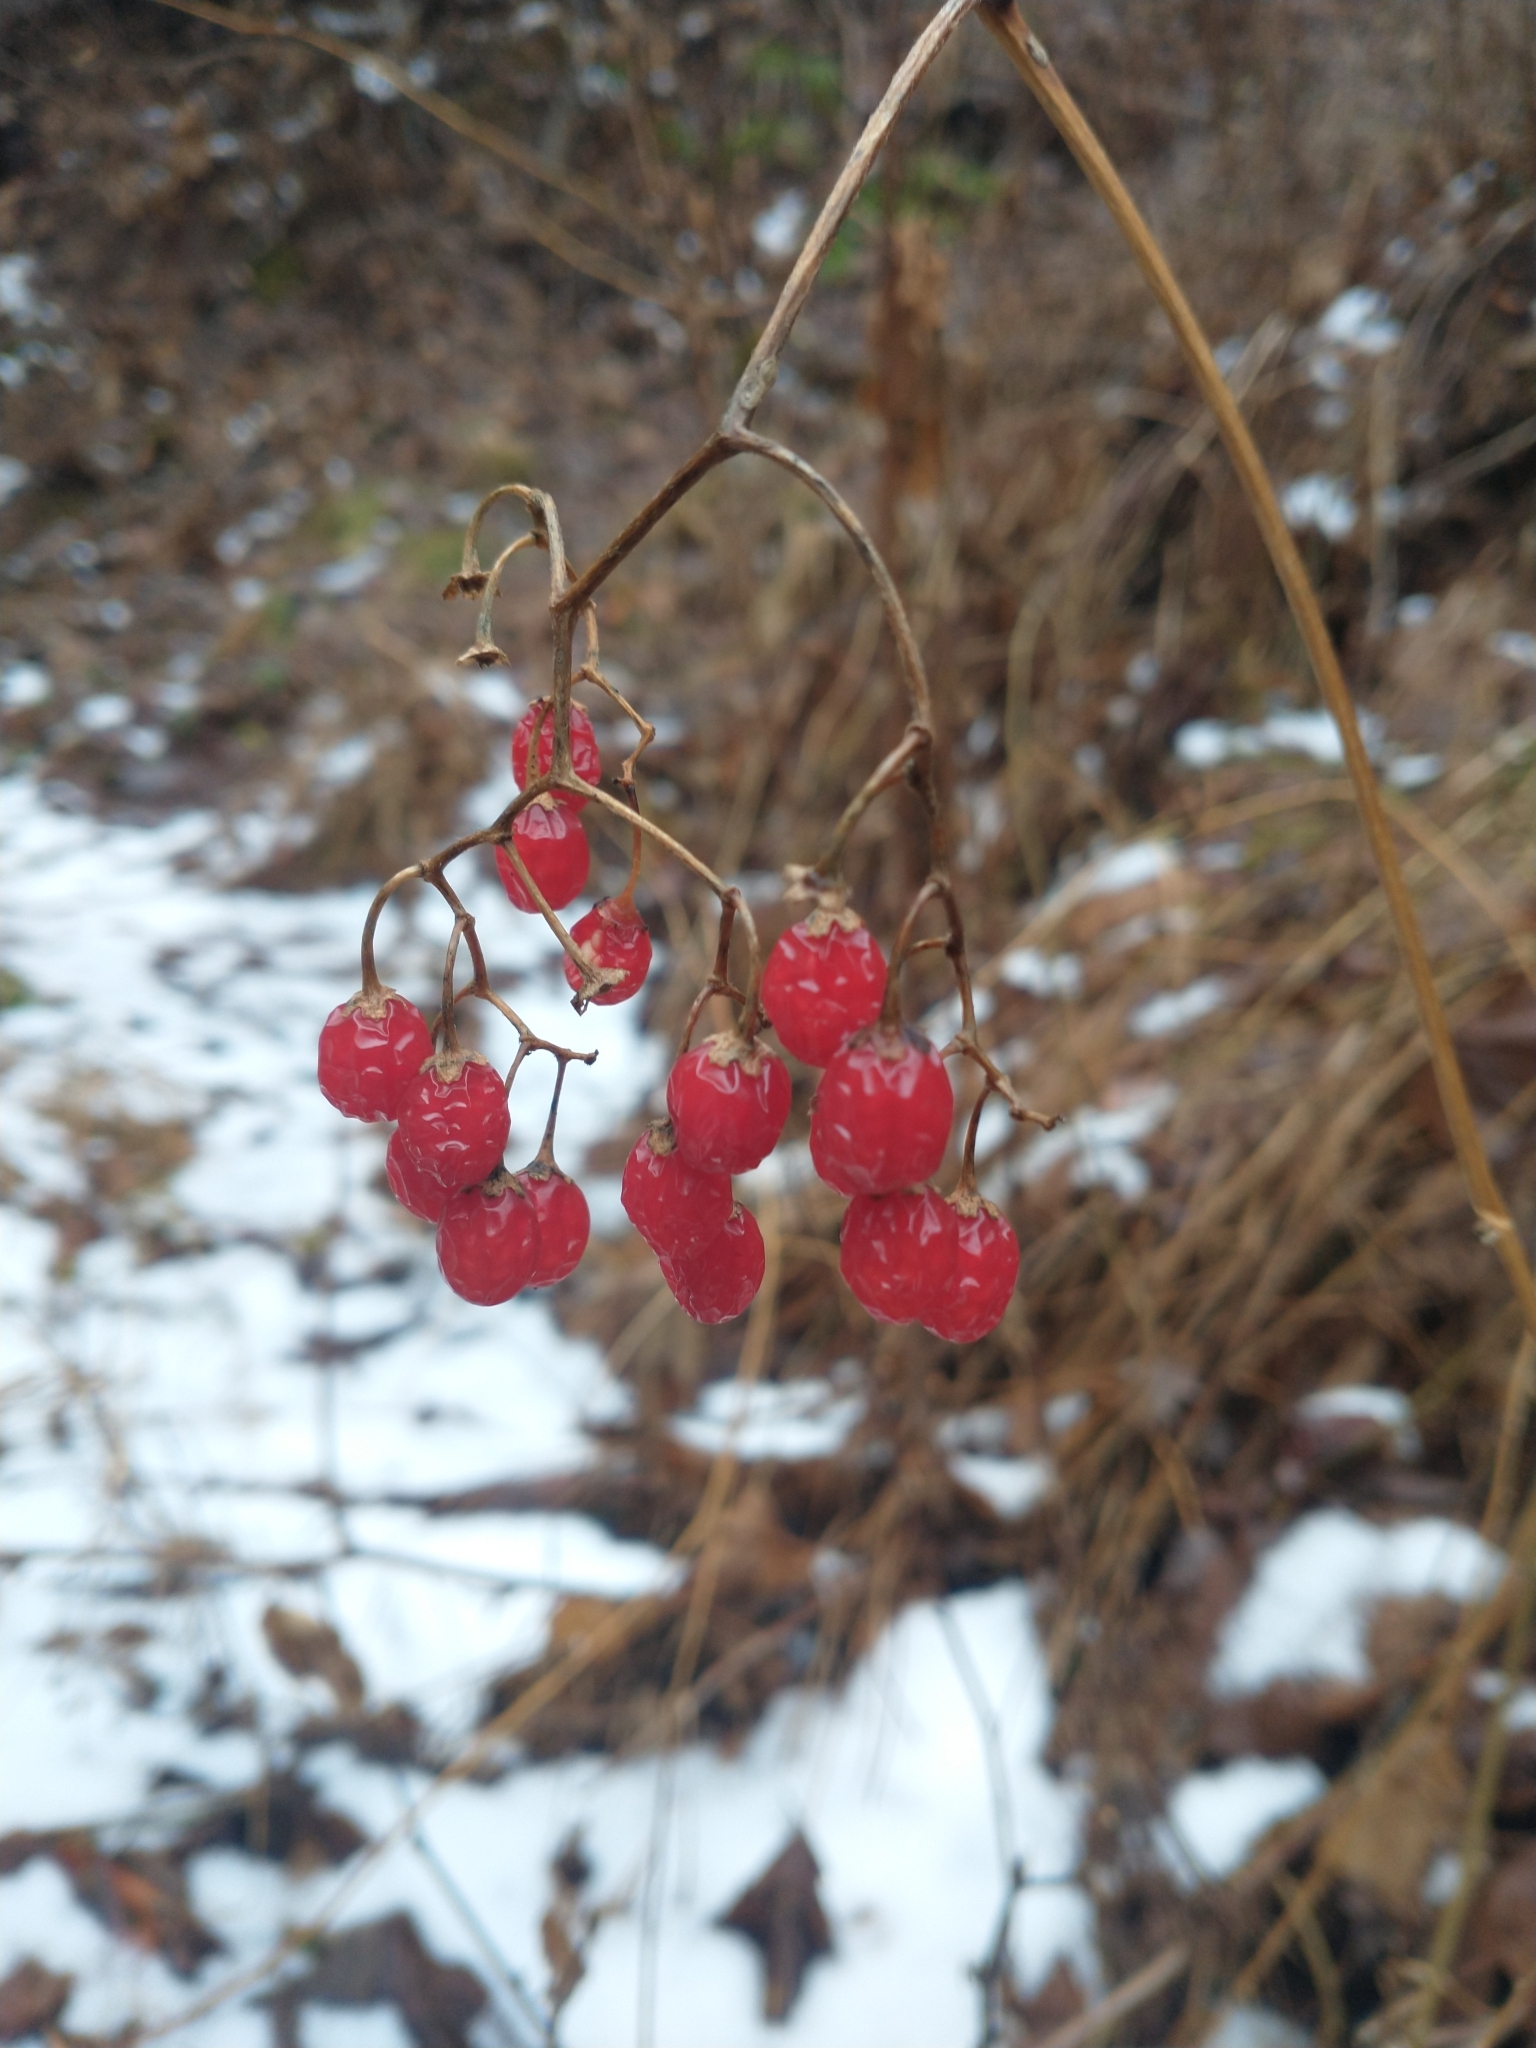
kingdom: Plantae
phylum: Tracheophyta
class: Magnoliopsida
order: Solanales
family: Solanaceae
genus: Solanum
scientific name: Solanum dulcamara
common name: Climbing nightshade
